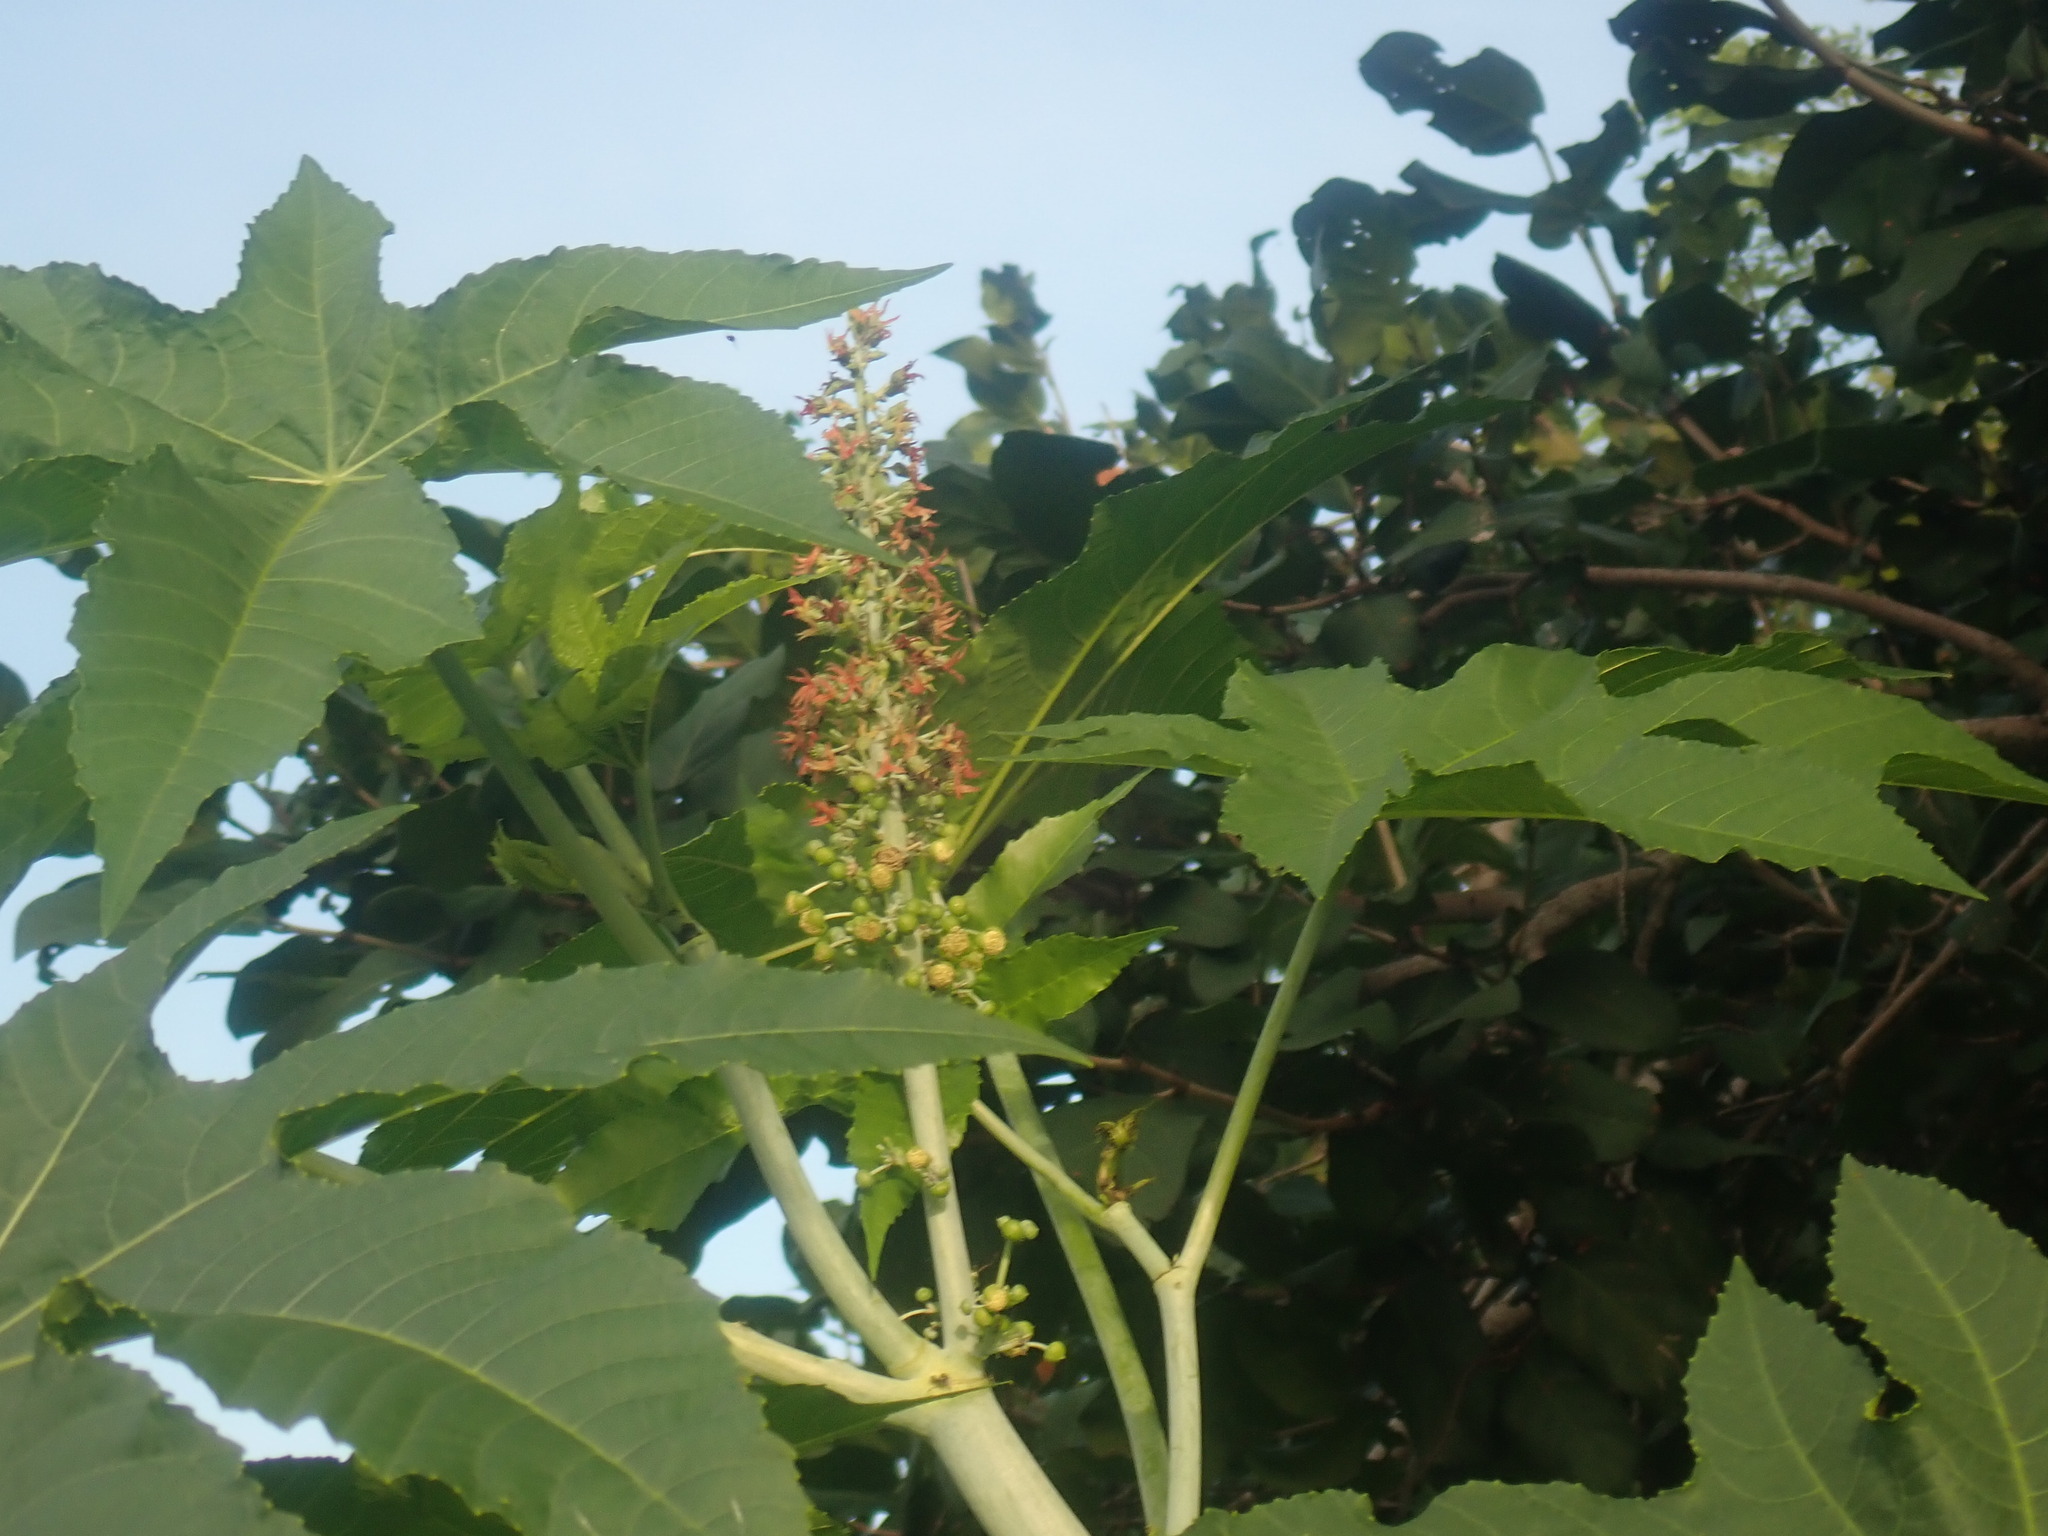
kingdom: Plantae
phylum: Tracheophyta
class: Magnoliopsida
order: Malpighiales
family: Euphorbiaceae
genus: Ricinus
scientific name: Ricinus communis
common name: Castor-oil-plant
